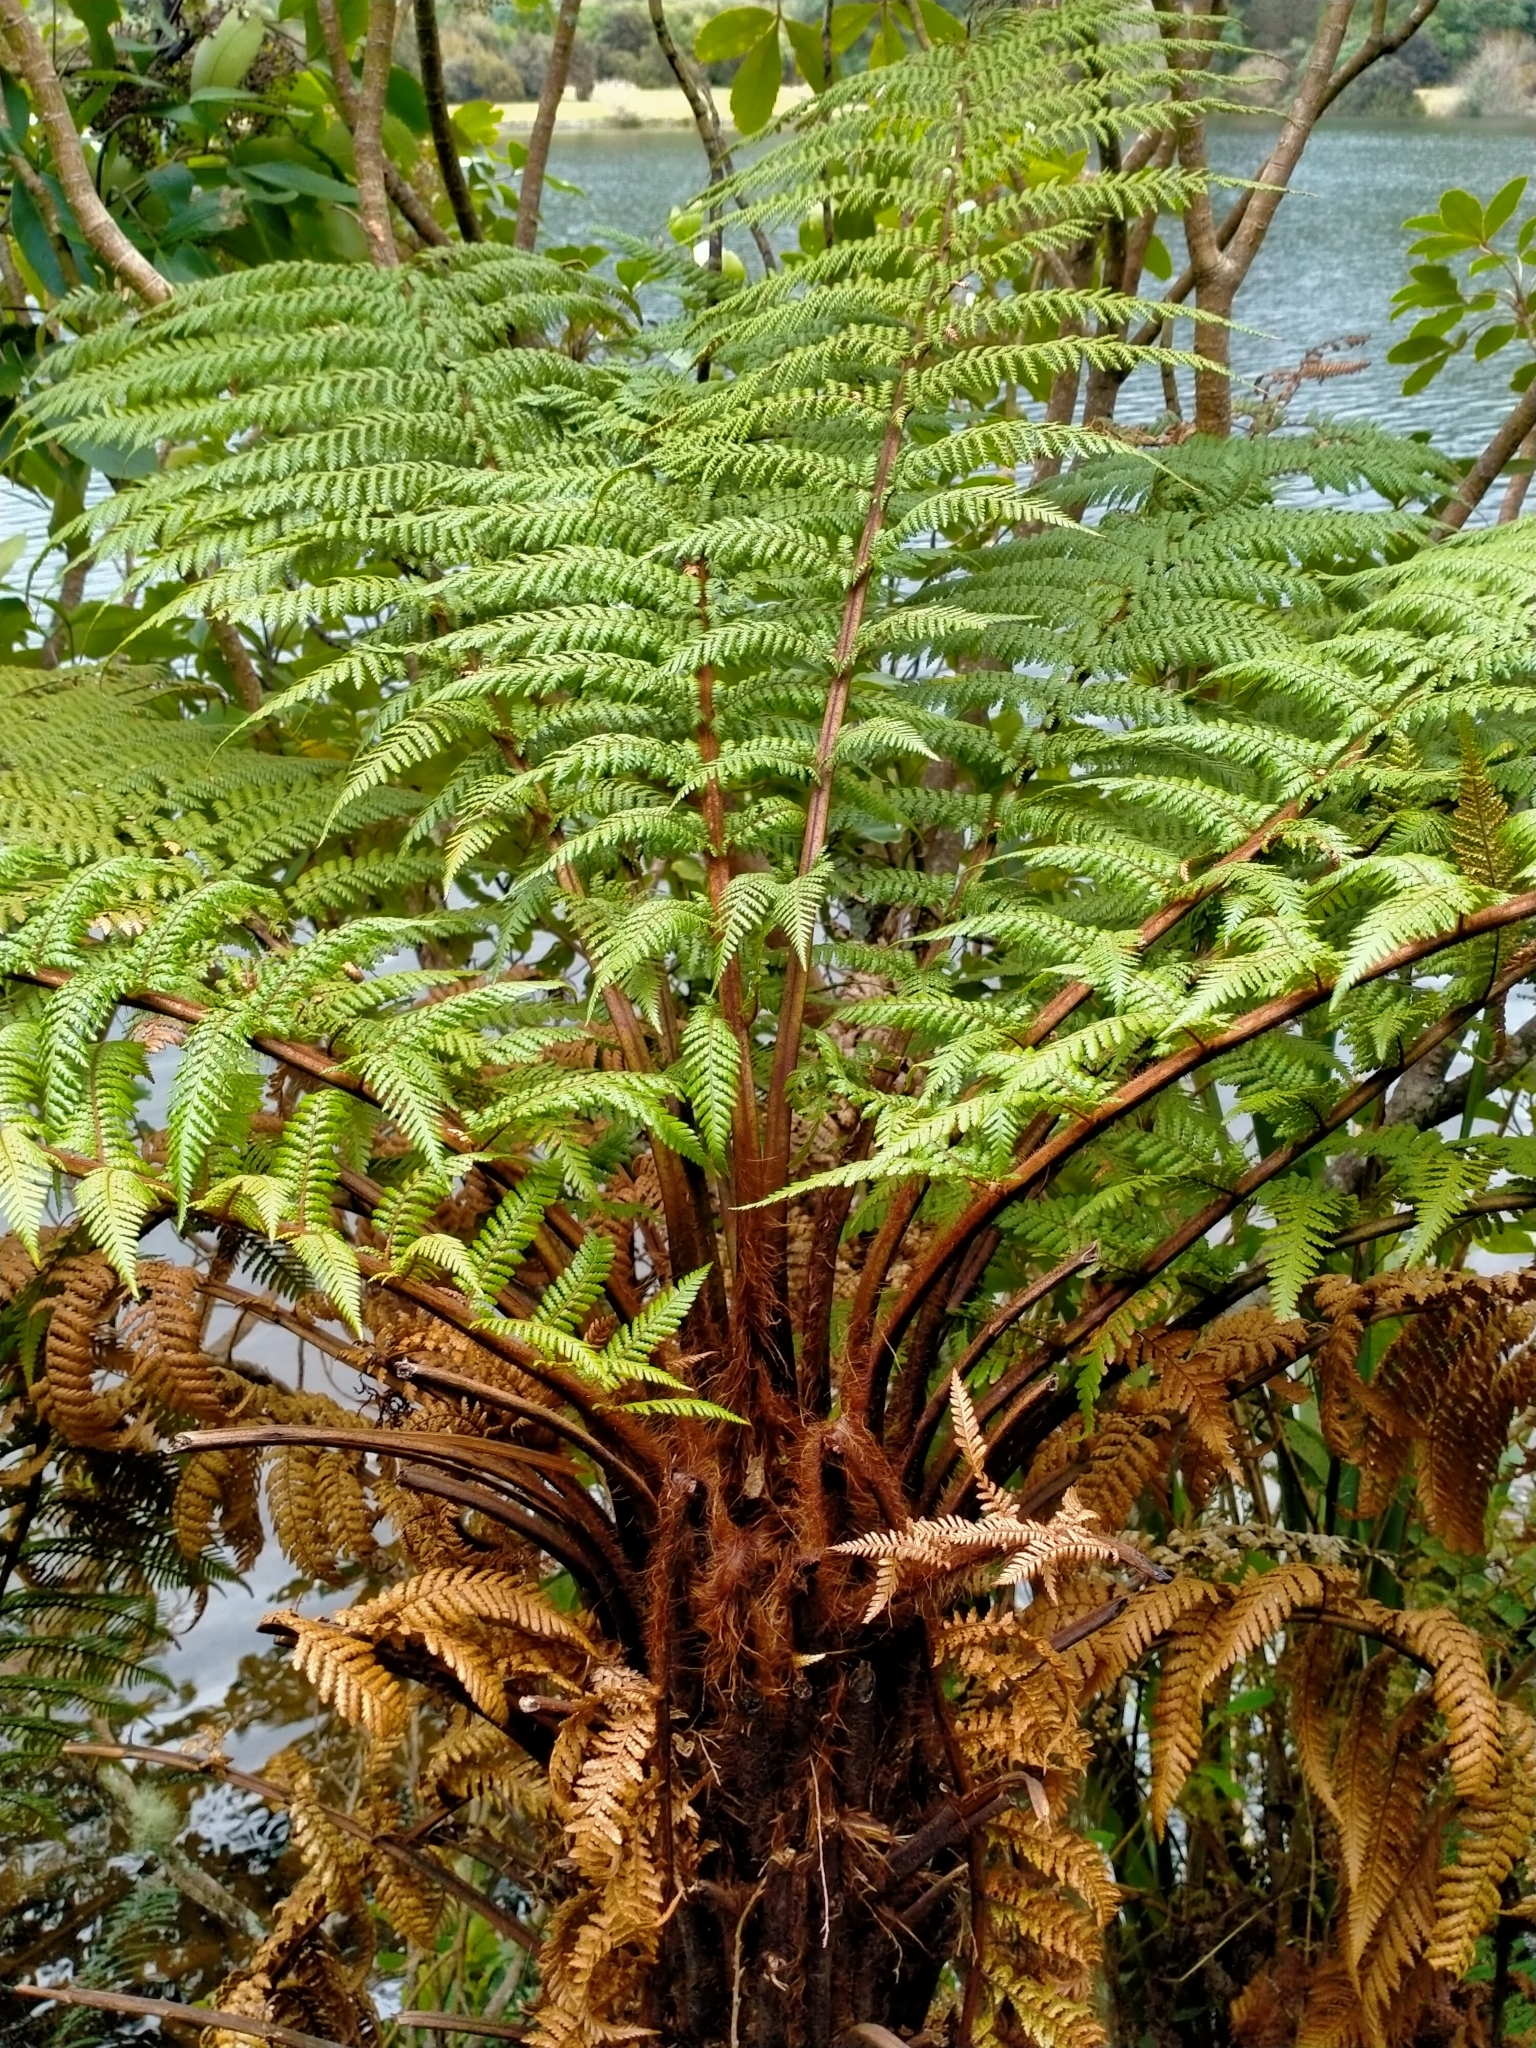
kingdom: Plantae
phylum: Tracheophyta
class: Polypodiopsida
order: Cyatheales
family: Dicksoniaceae
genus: Dicksonia
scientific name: Dicksonia squarrosa
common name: Hard treefern
